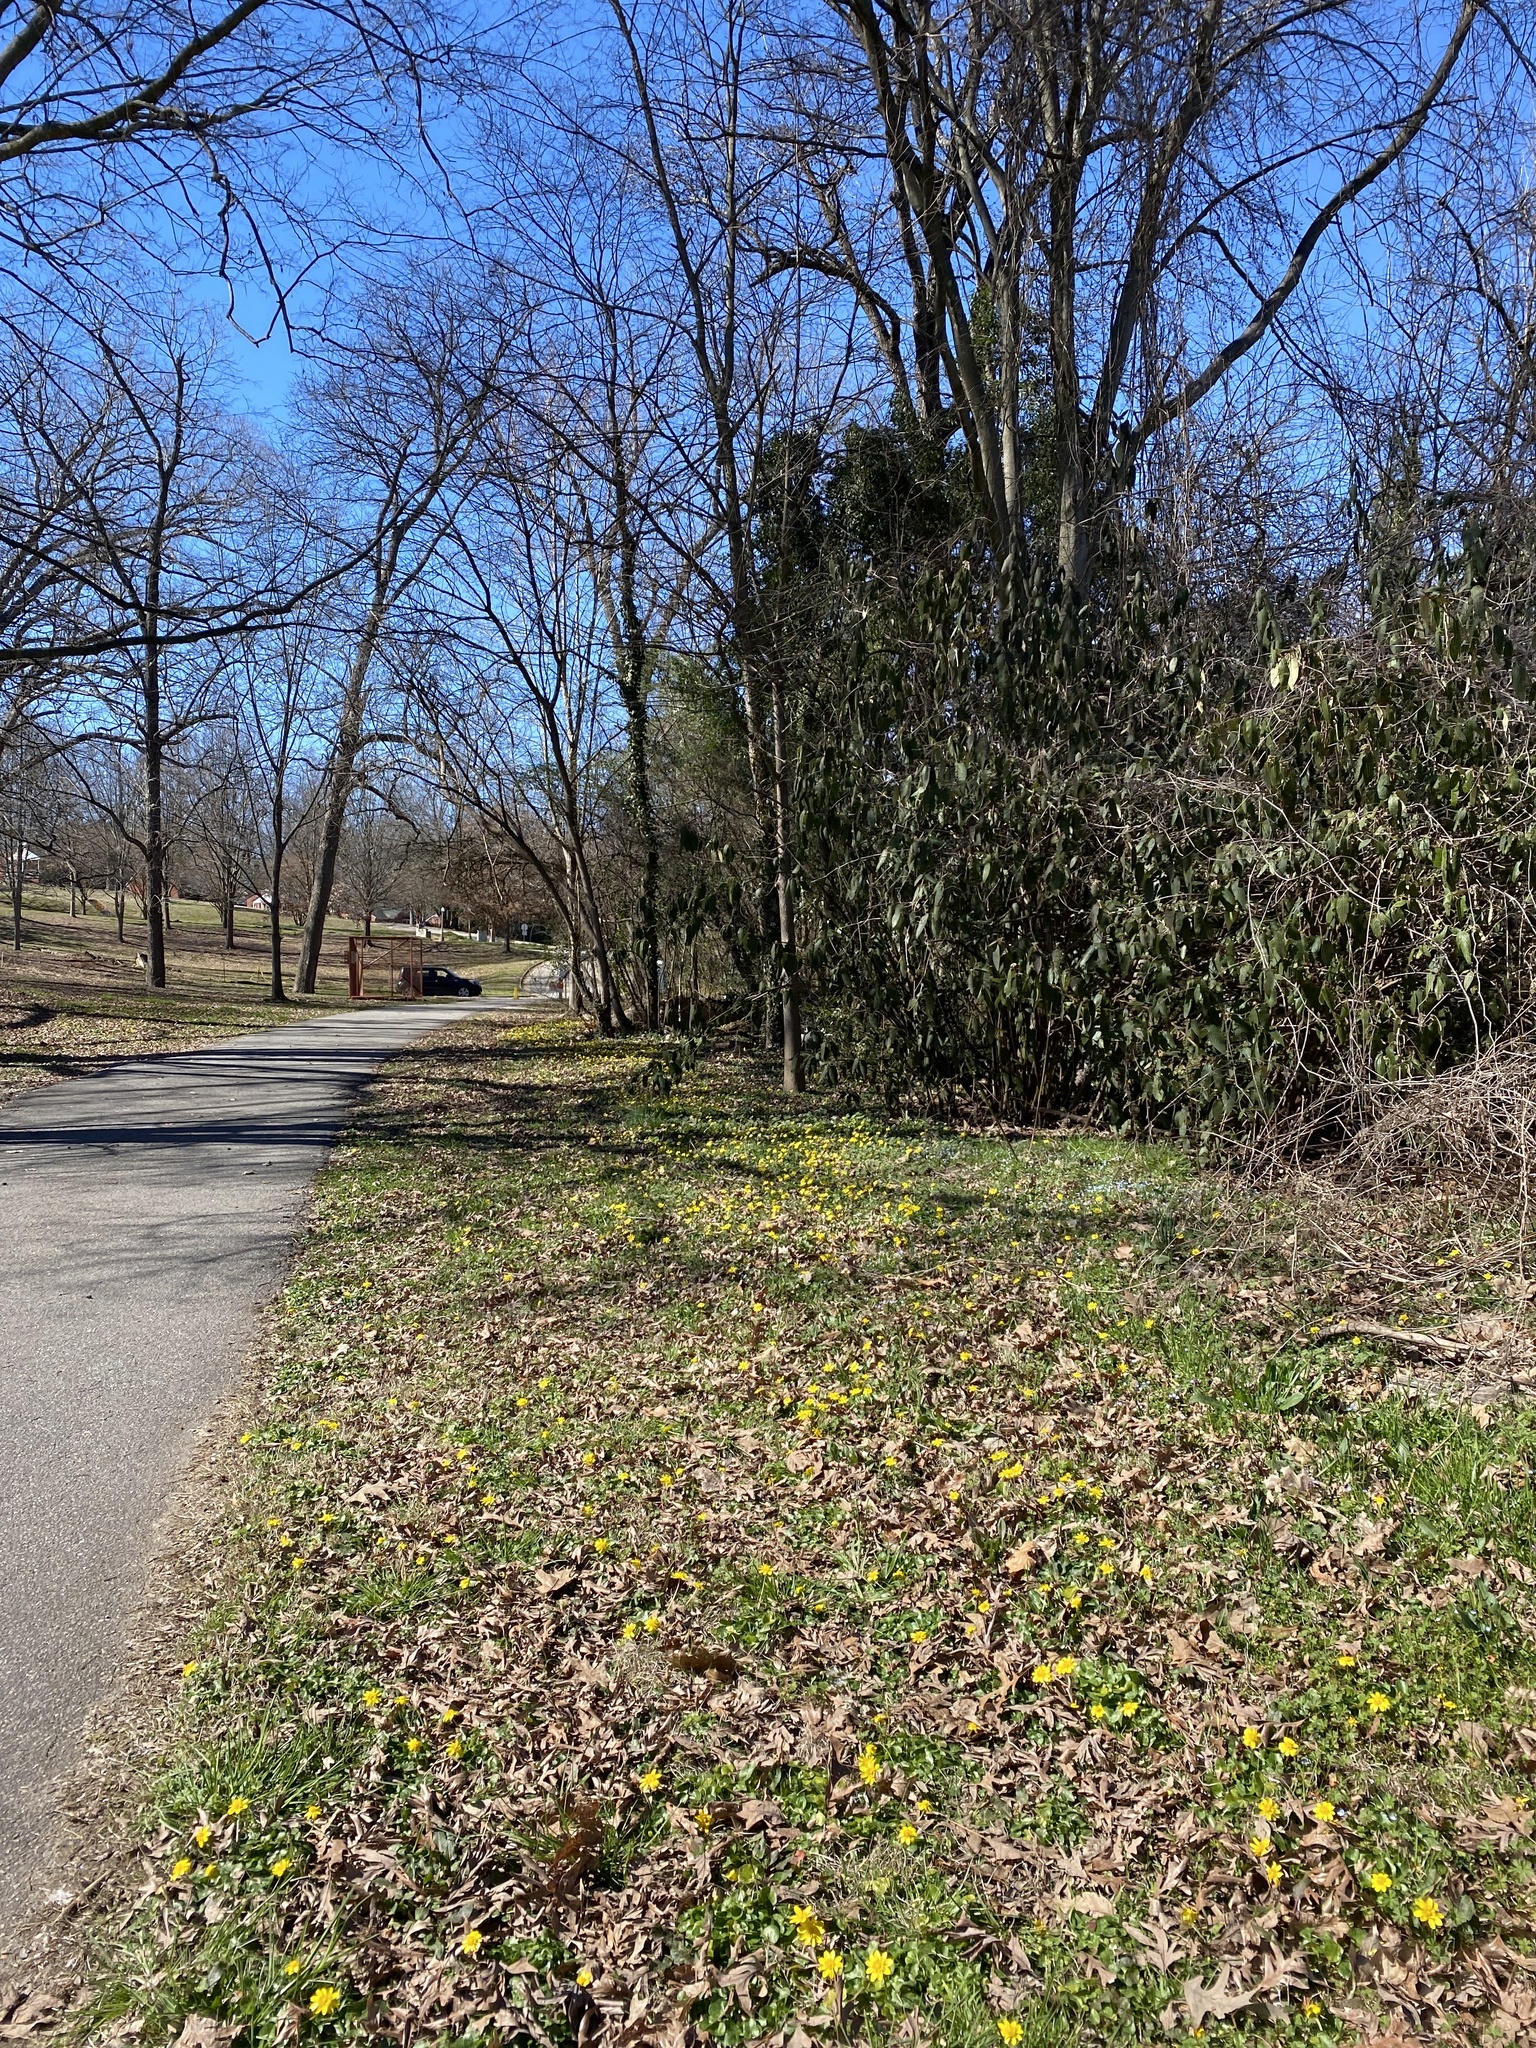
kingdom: Plantae
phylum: Tracheophyta
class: Magnoliopsida
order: Ranunculales
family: Ranunculaceae
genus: Ficaria
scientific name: Ficaria verna
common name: Lesser celandine
